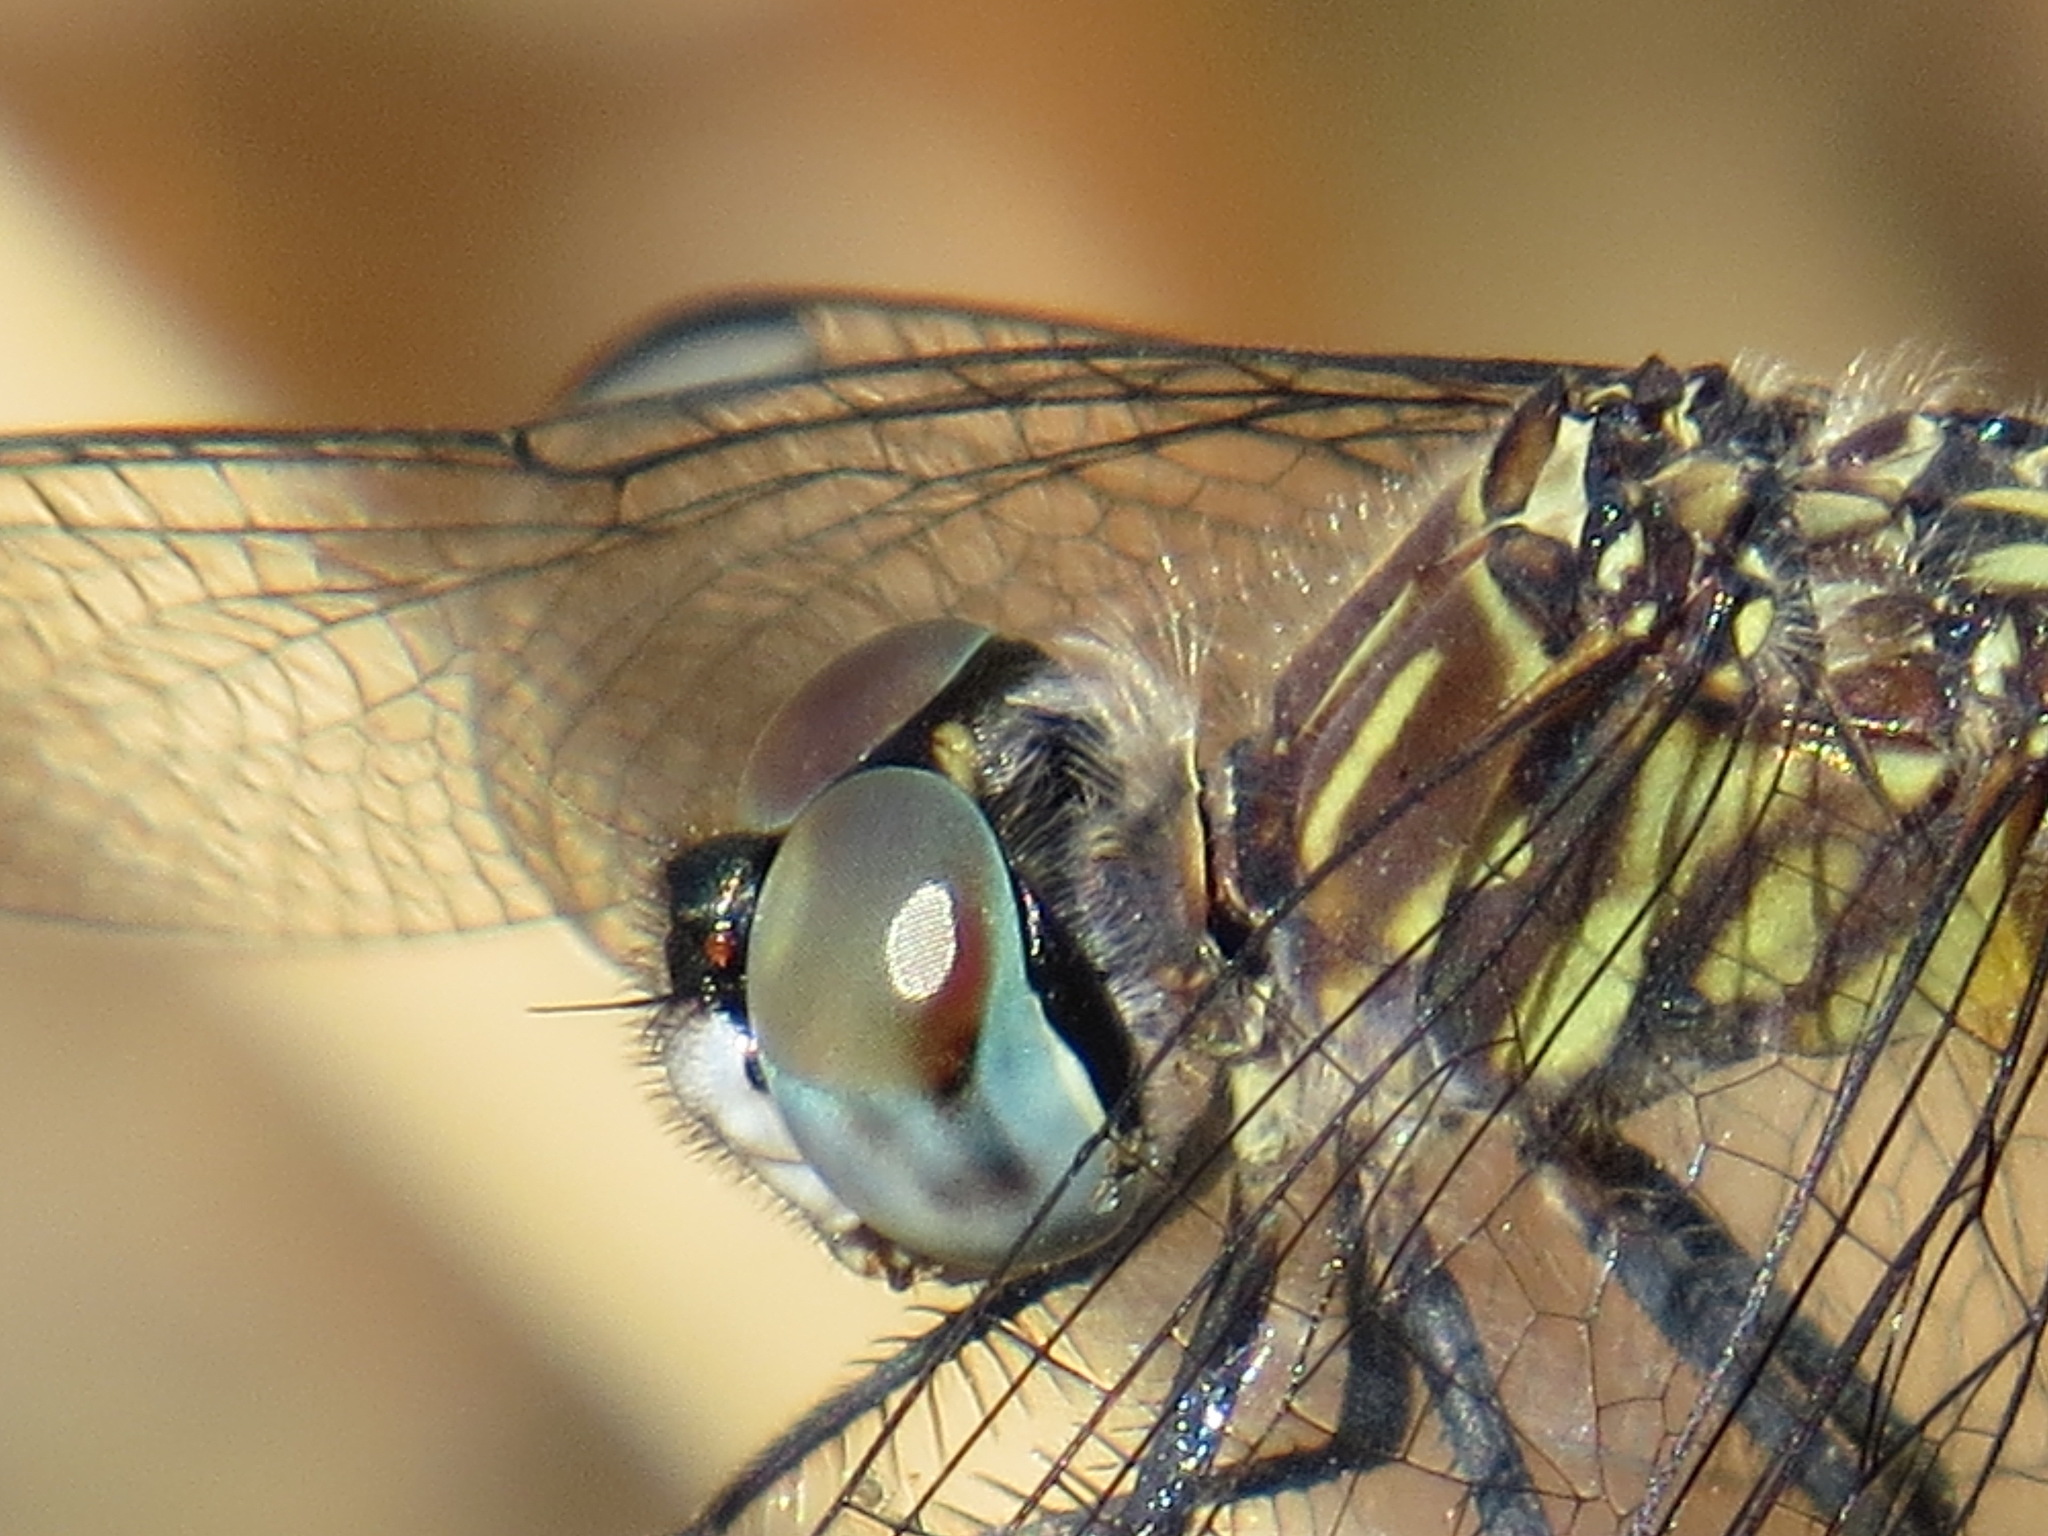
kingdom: Animalia
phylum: Arthropoda
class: Insecta
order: Odonata
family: Libellulidae
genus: Pachydiplax
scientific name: Pachydiplax longipennis
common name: Blue dasher
